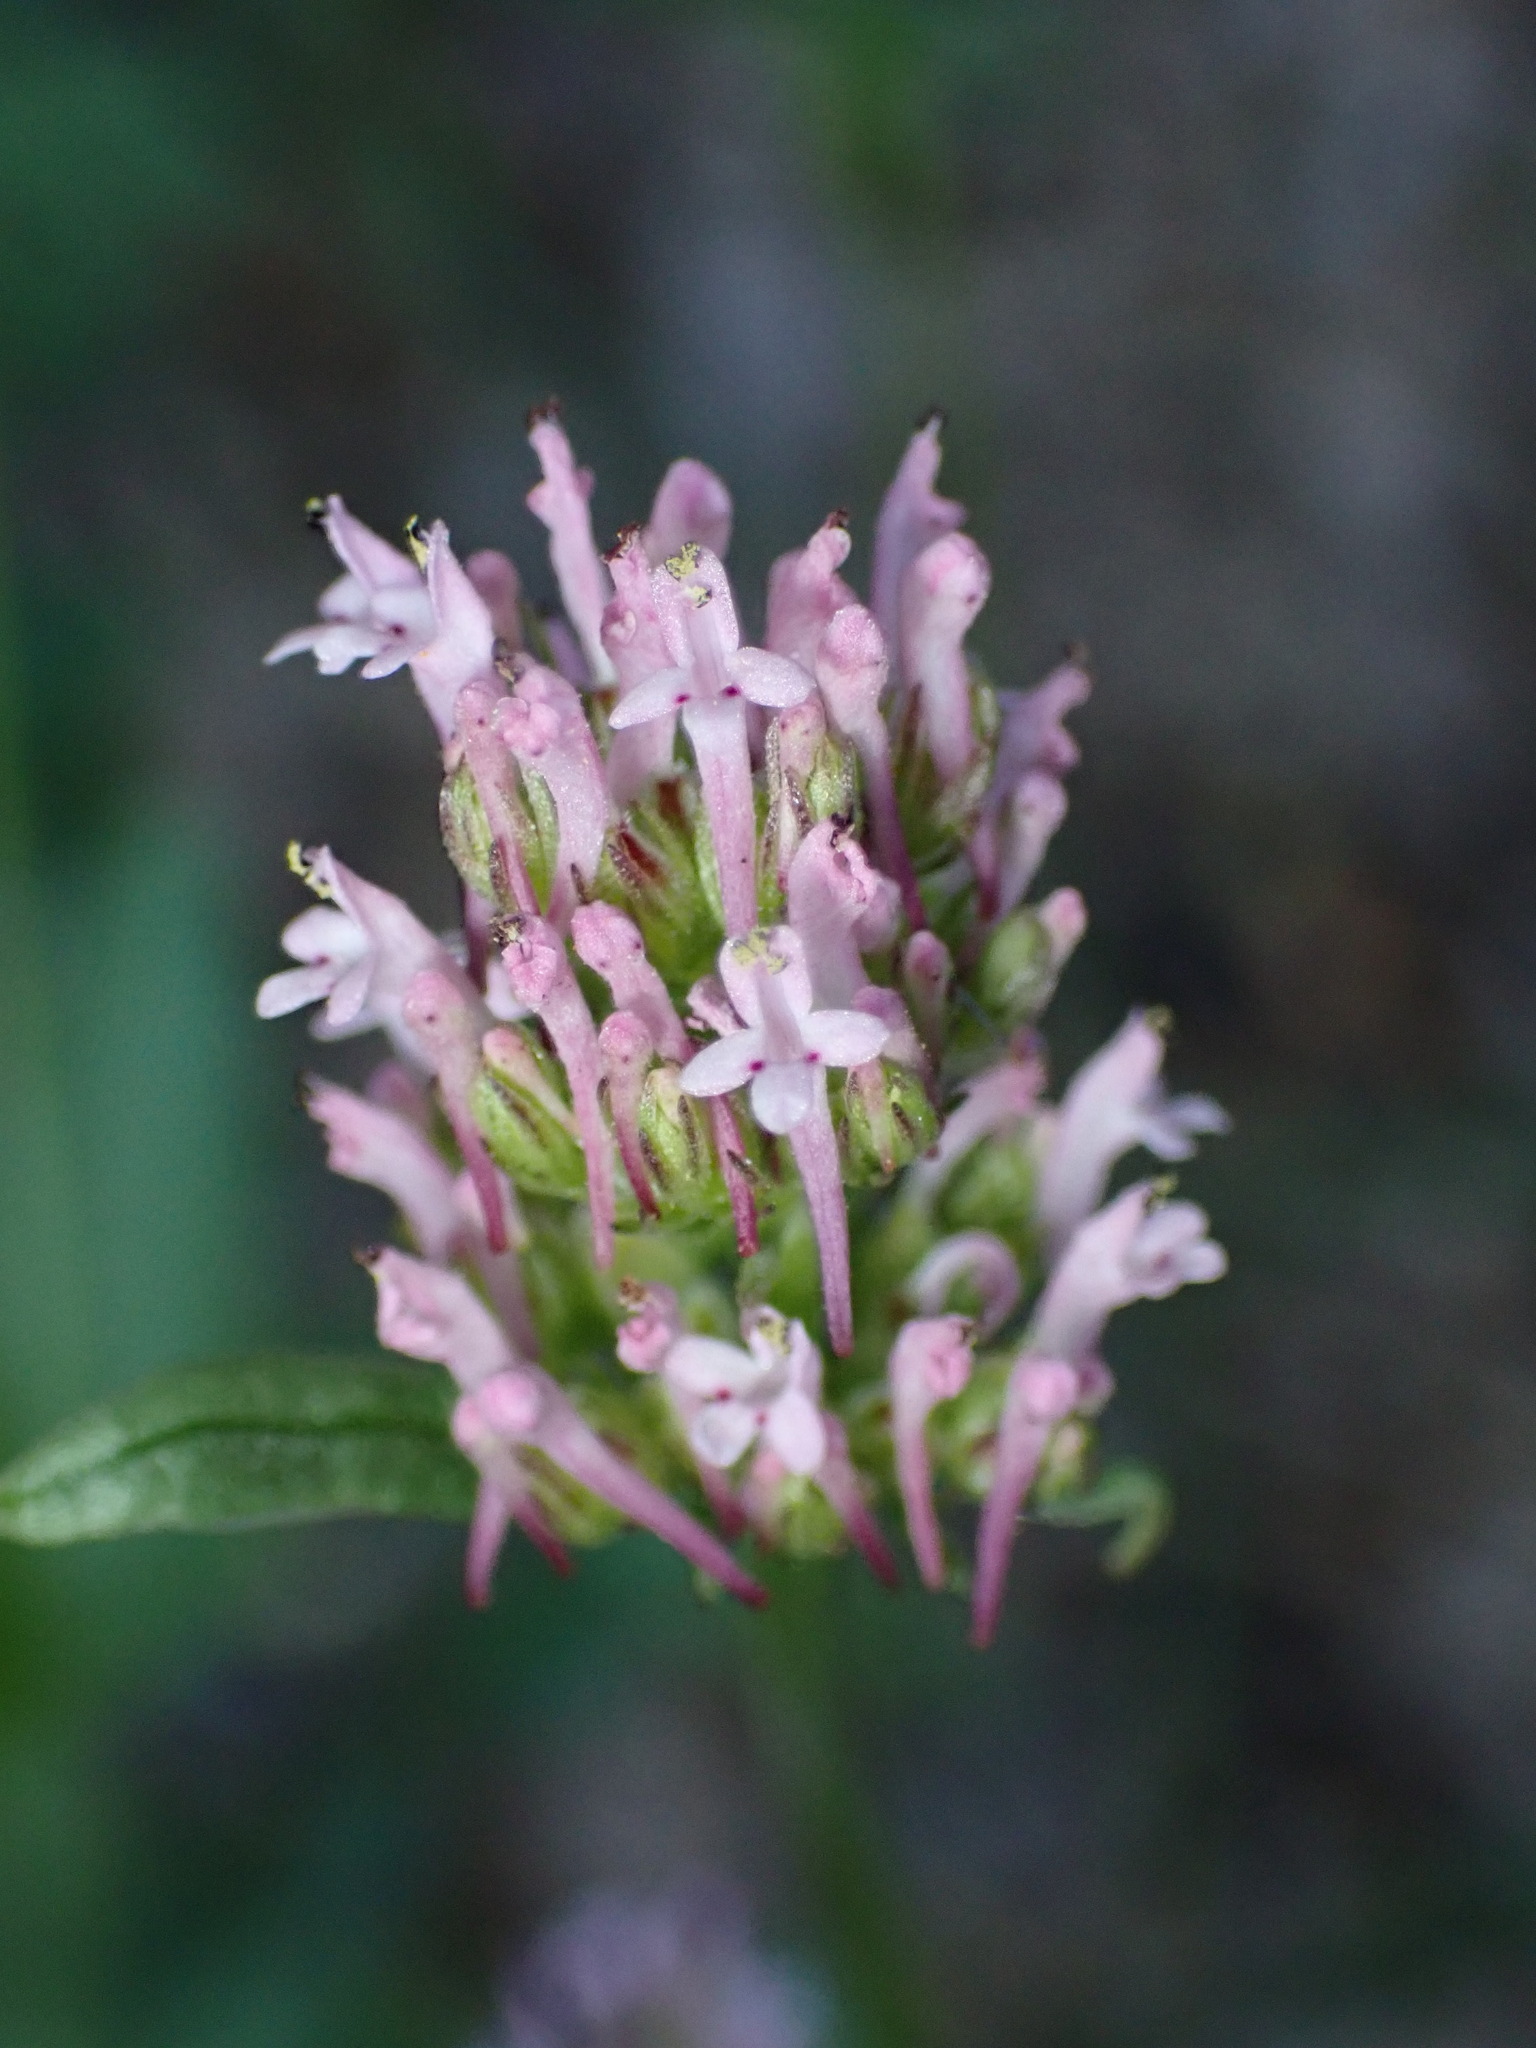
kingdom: Plantae
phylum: Tracheophyta
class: Magnoliopsida
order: Dipsacales
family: Caprifoliaceae
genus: Plectritis
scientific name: Plectritis ciliosa
